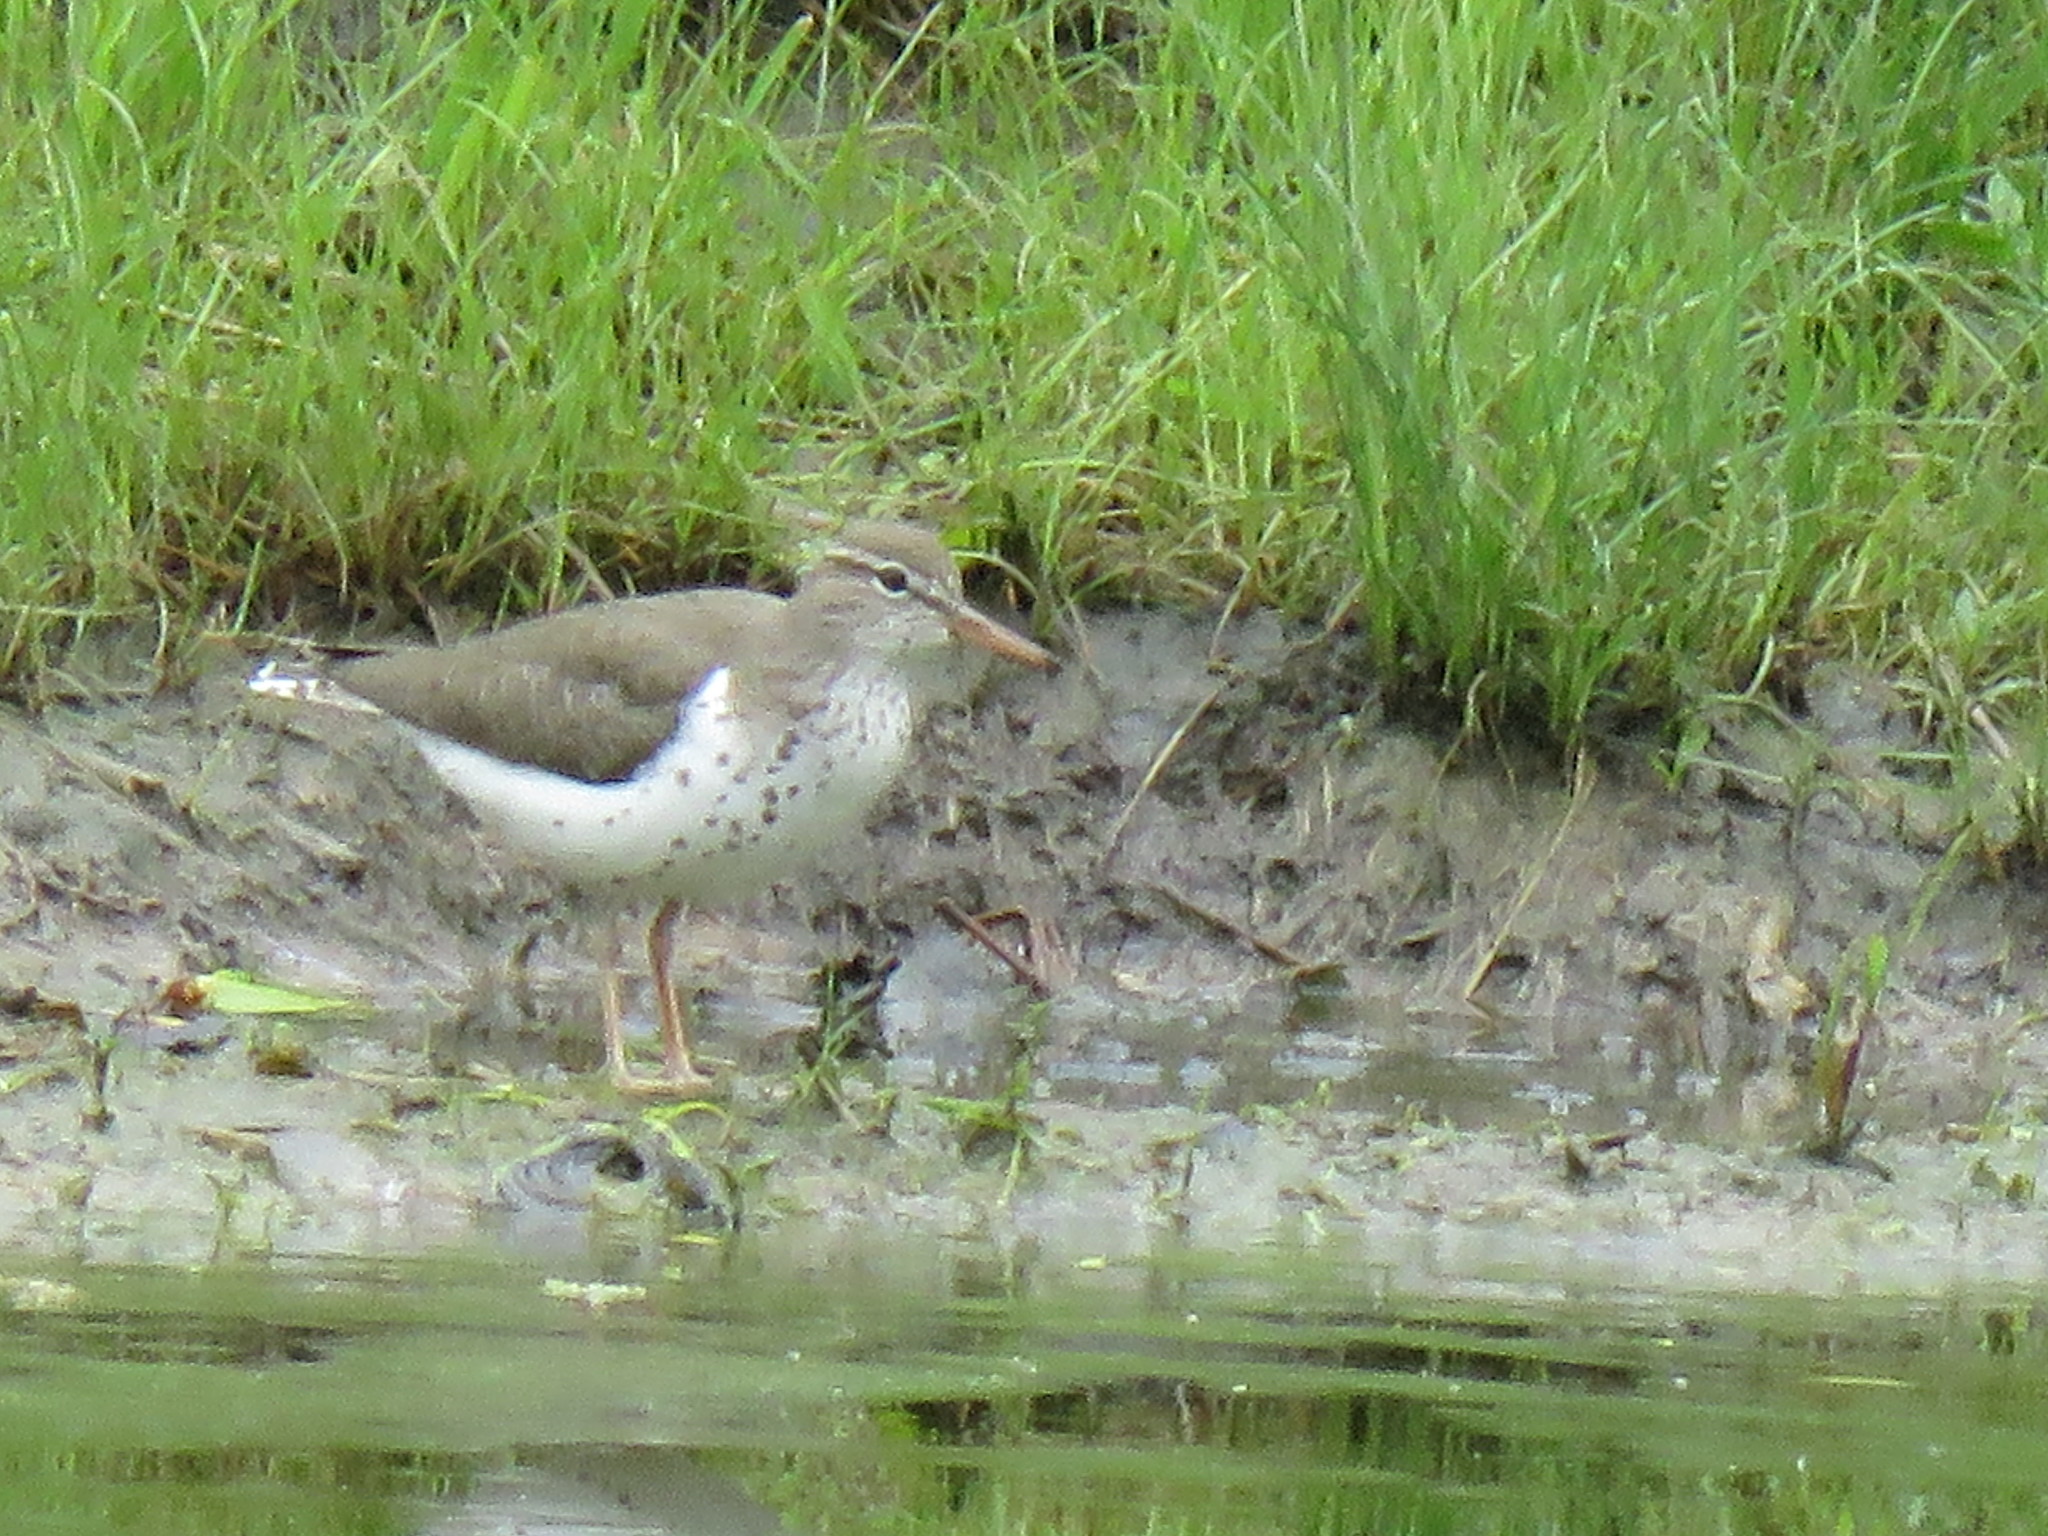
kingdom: Animalia
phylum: Chordata
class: Aves
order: Charadriiformes
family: Scolopacidae
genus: Actitis
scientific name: Actitis macularius
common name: Spotted sandpiper
